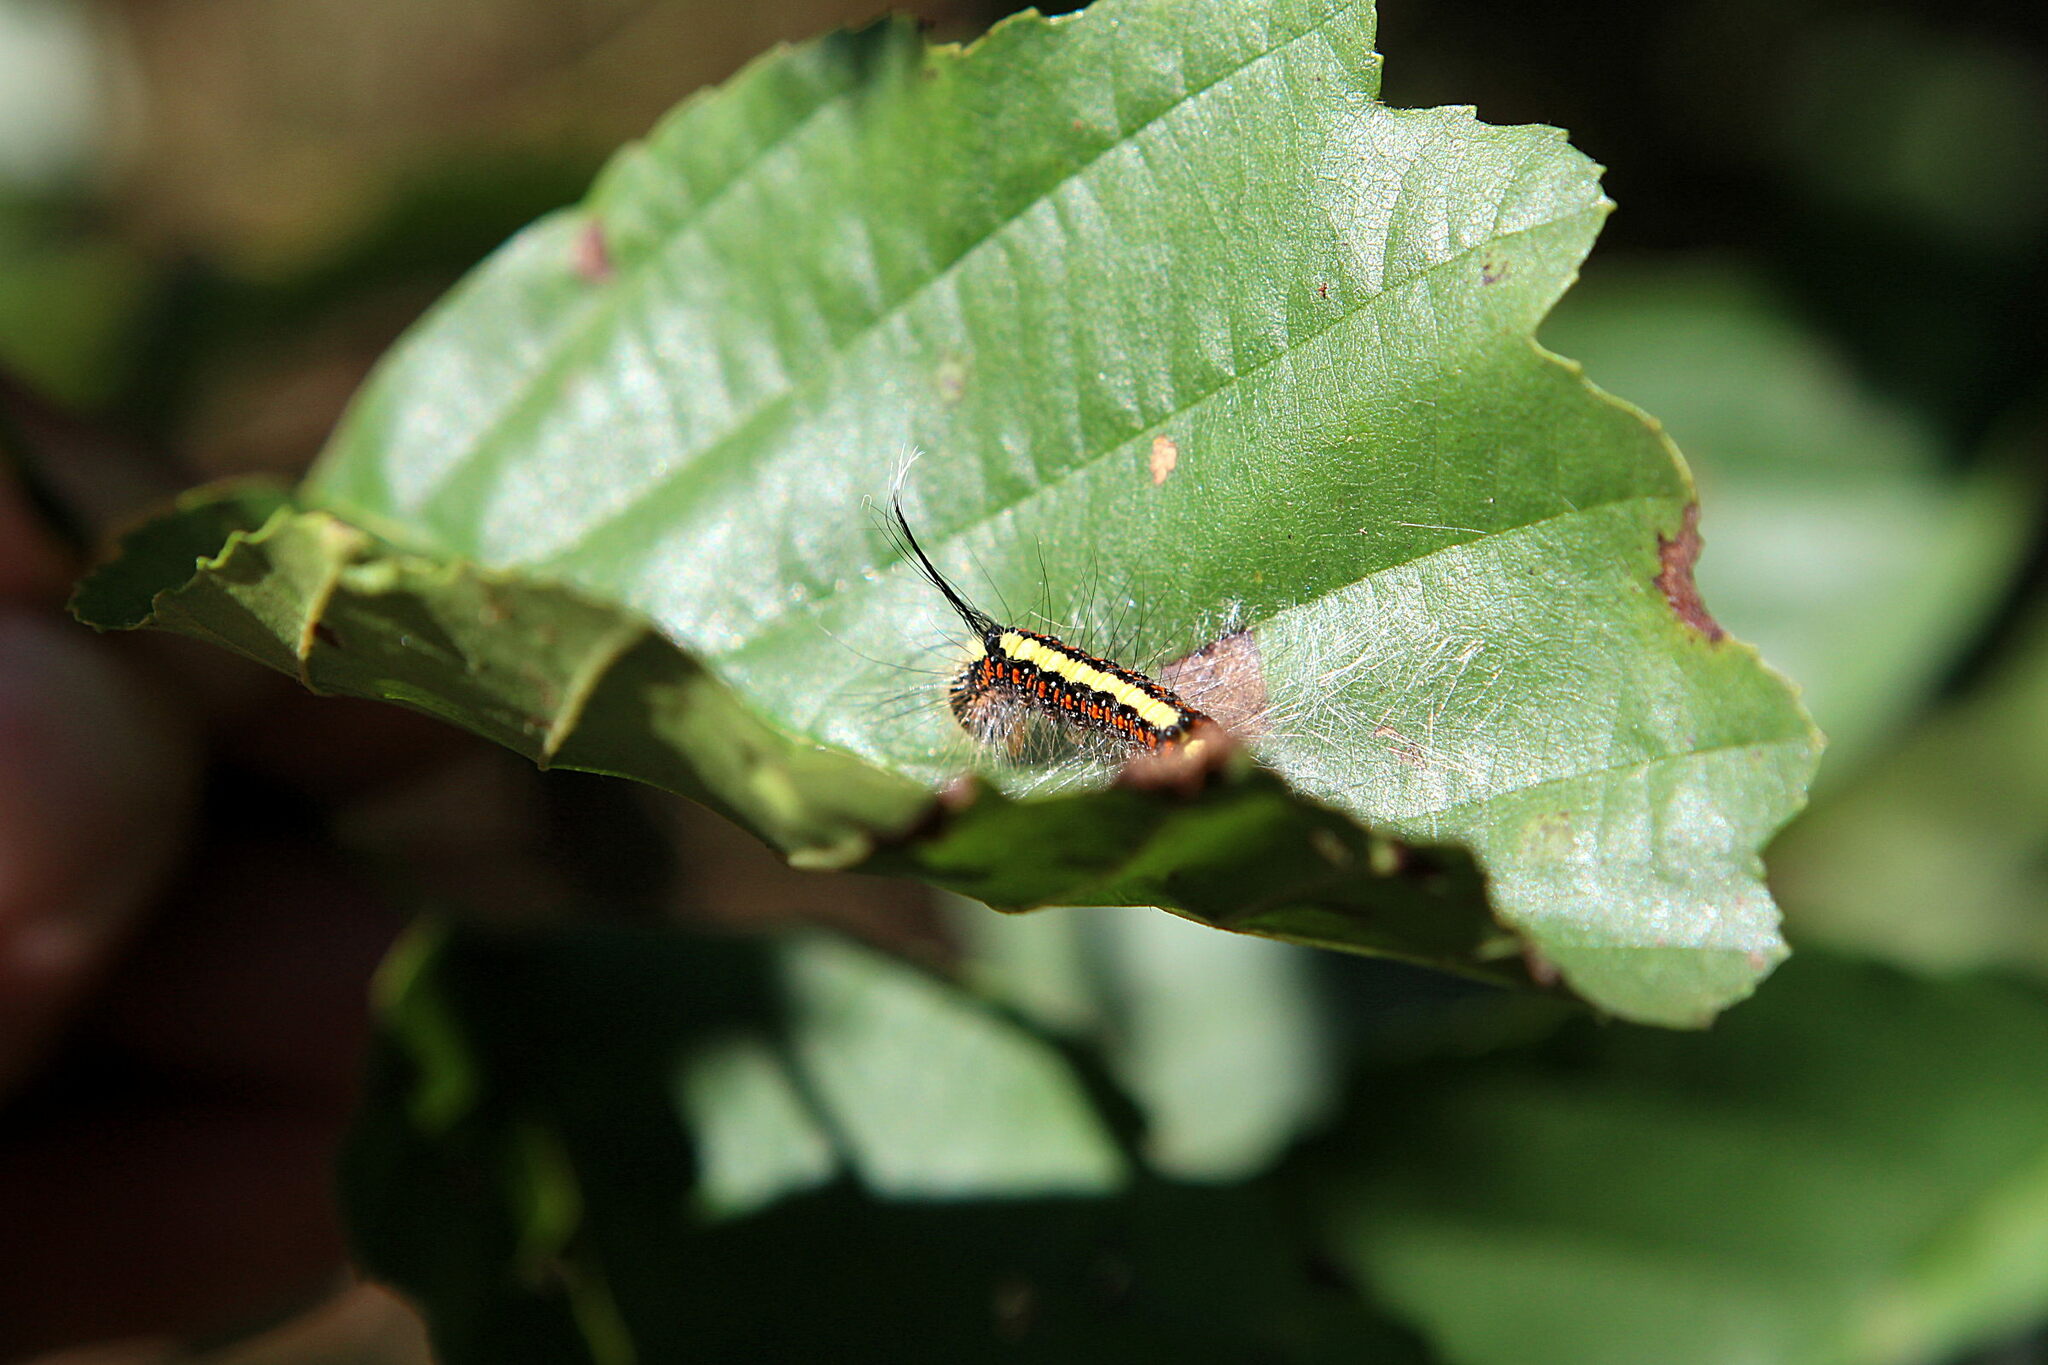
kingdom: Animalia
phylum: Arthropoda
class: Insecta
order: Lepidoptera
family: Noctuidae
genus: Acronicta
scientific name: Acronicta cuspis
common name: Large dagger
